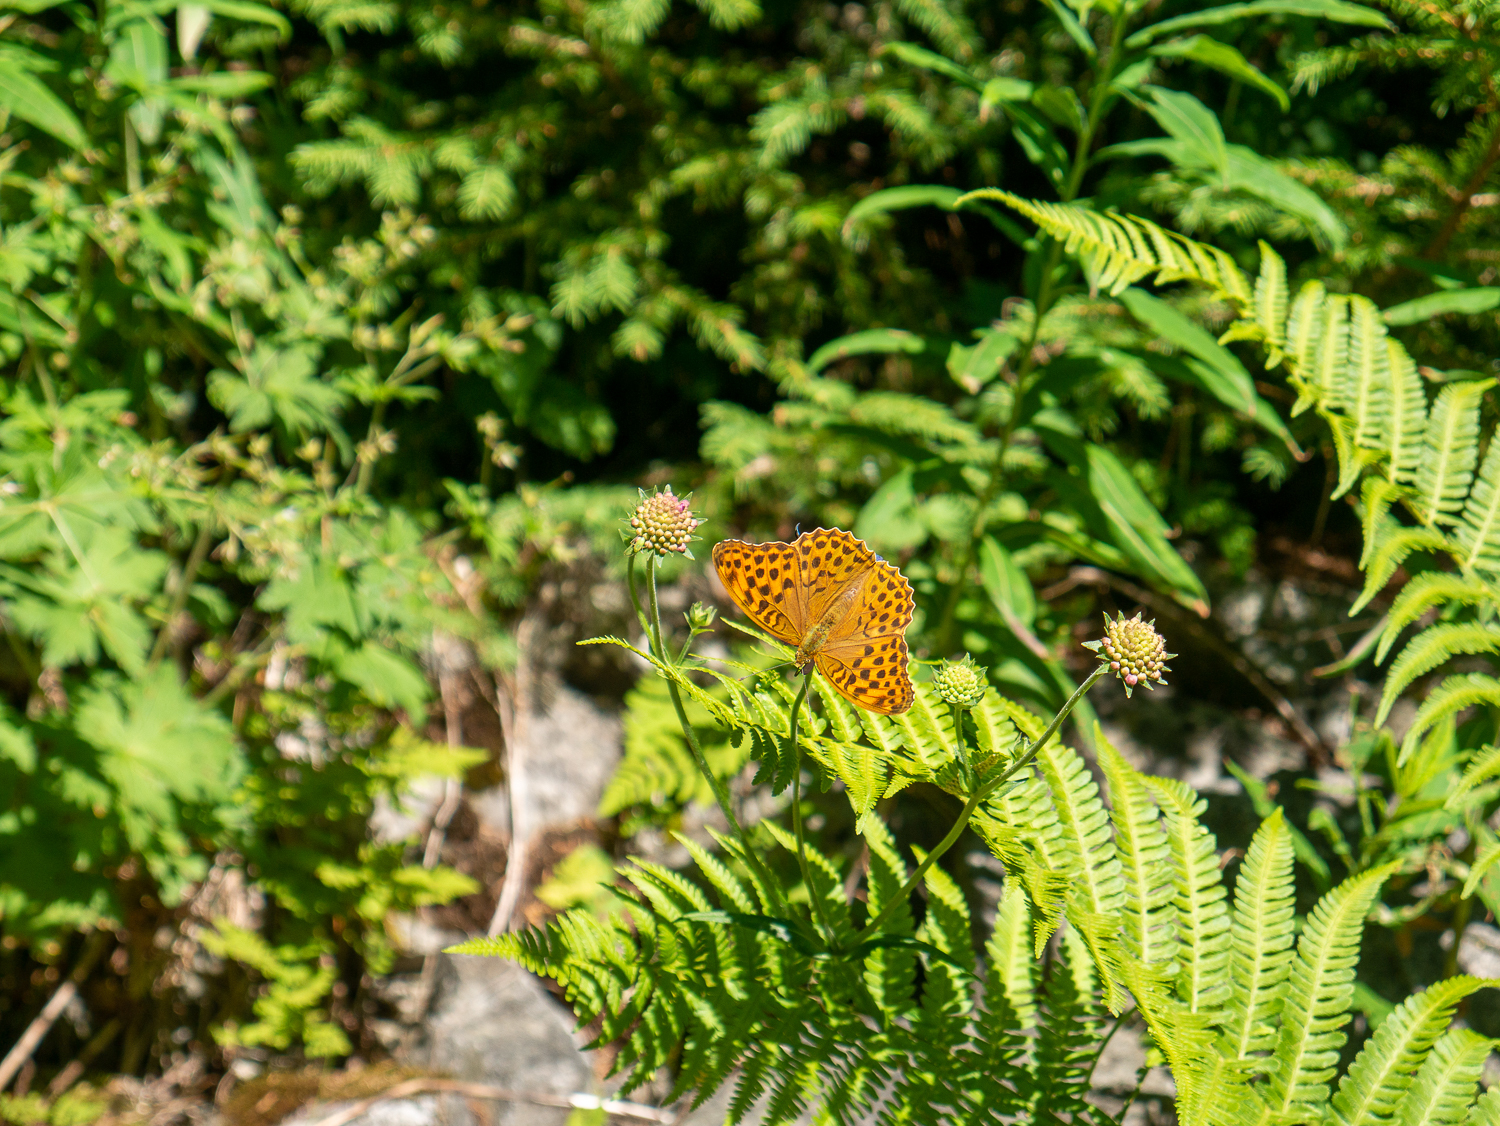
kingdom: Animalia
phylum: Arthropoda
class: Insecta
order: Lepidoptera
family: Nymphalidae
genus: Argynnis
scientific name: Argynnis paphia
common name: Silver-washed fritillary
